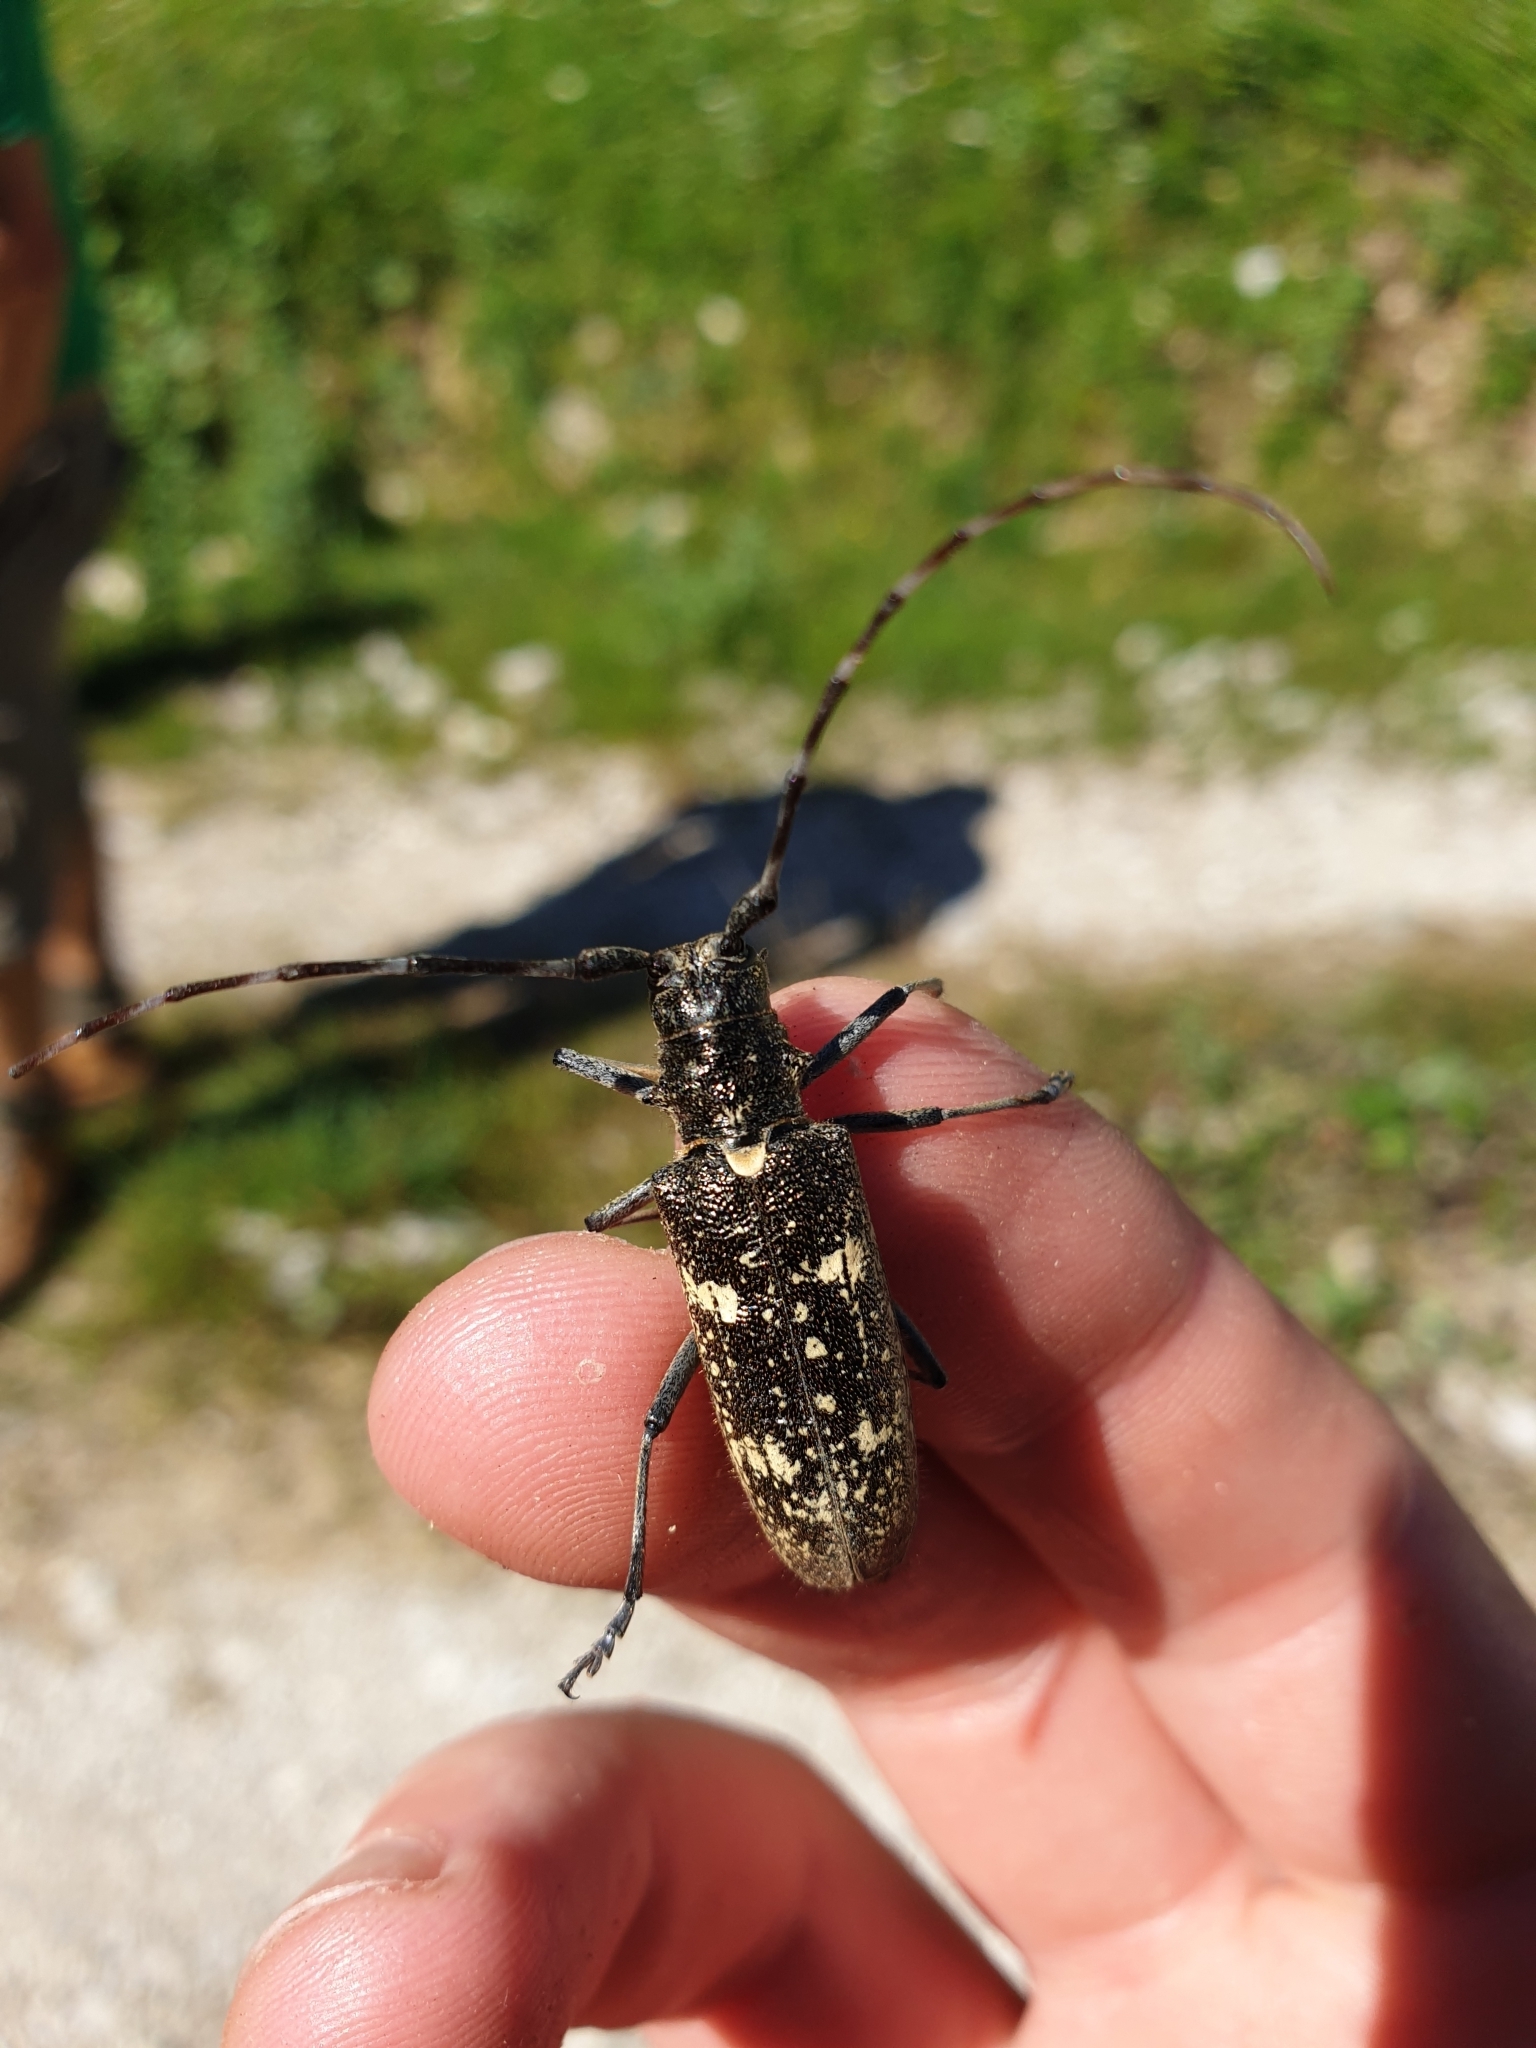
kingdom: Animalia
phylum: Arthropoda
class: Insecta
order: Coleoptera
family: Cerambycidae
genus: Monochamus
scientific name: Monochamus sartor
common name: Pine sawyer
